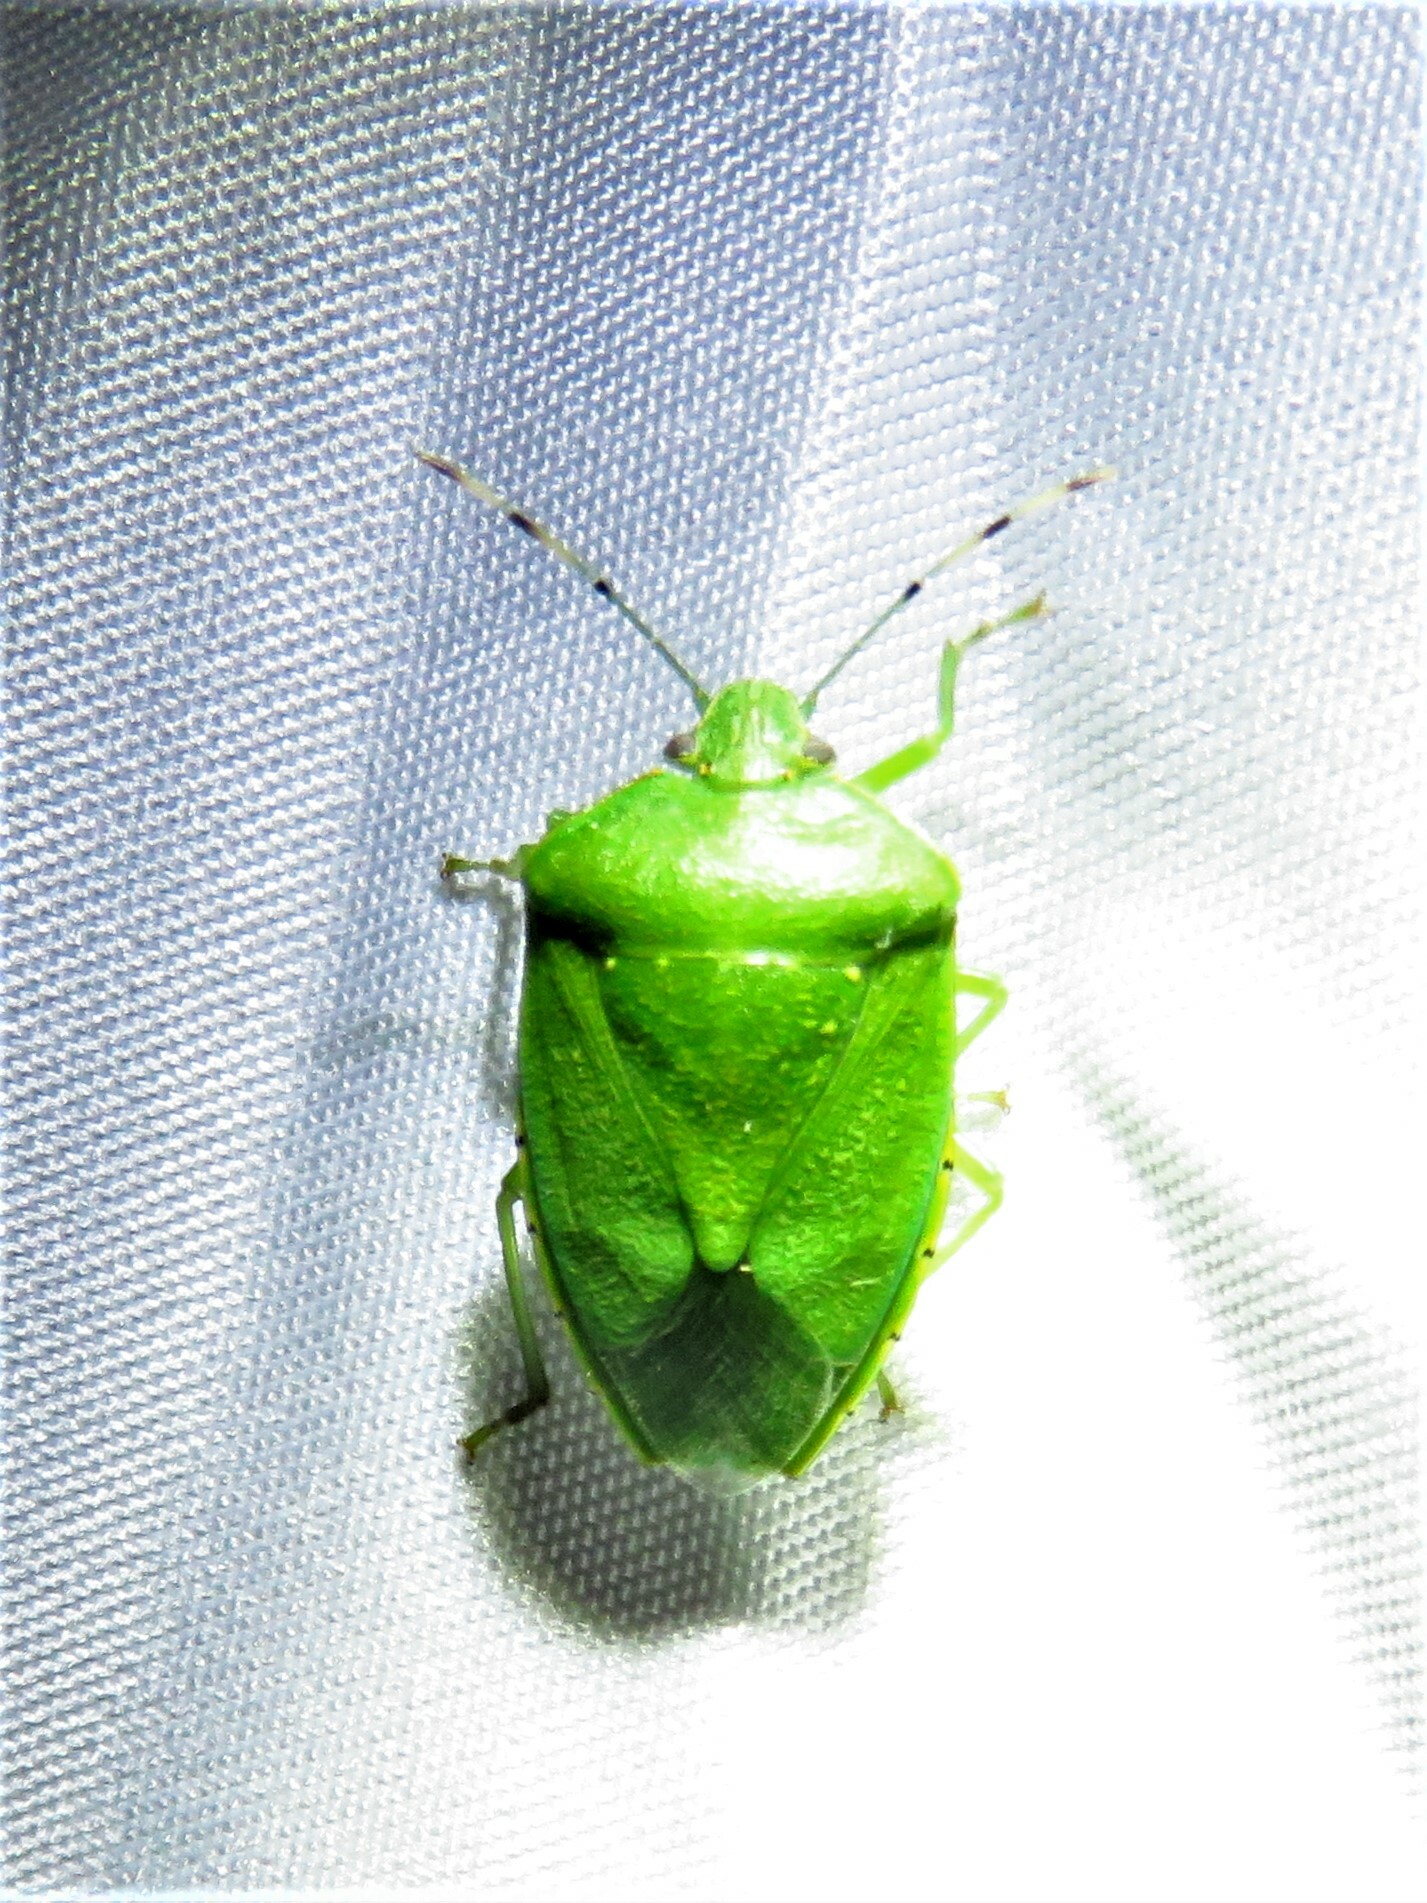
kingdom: Animalia
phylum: Arthropoda
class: Insecta
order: Hemiptera
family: Pentatomidae
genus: Chinavia
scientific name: Chinavia hilaris
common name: Green stink bug
